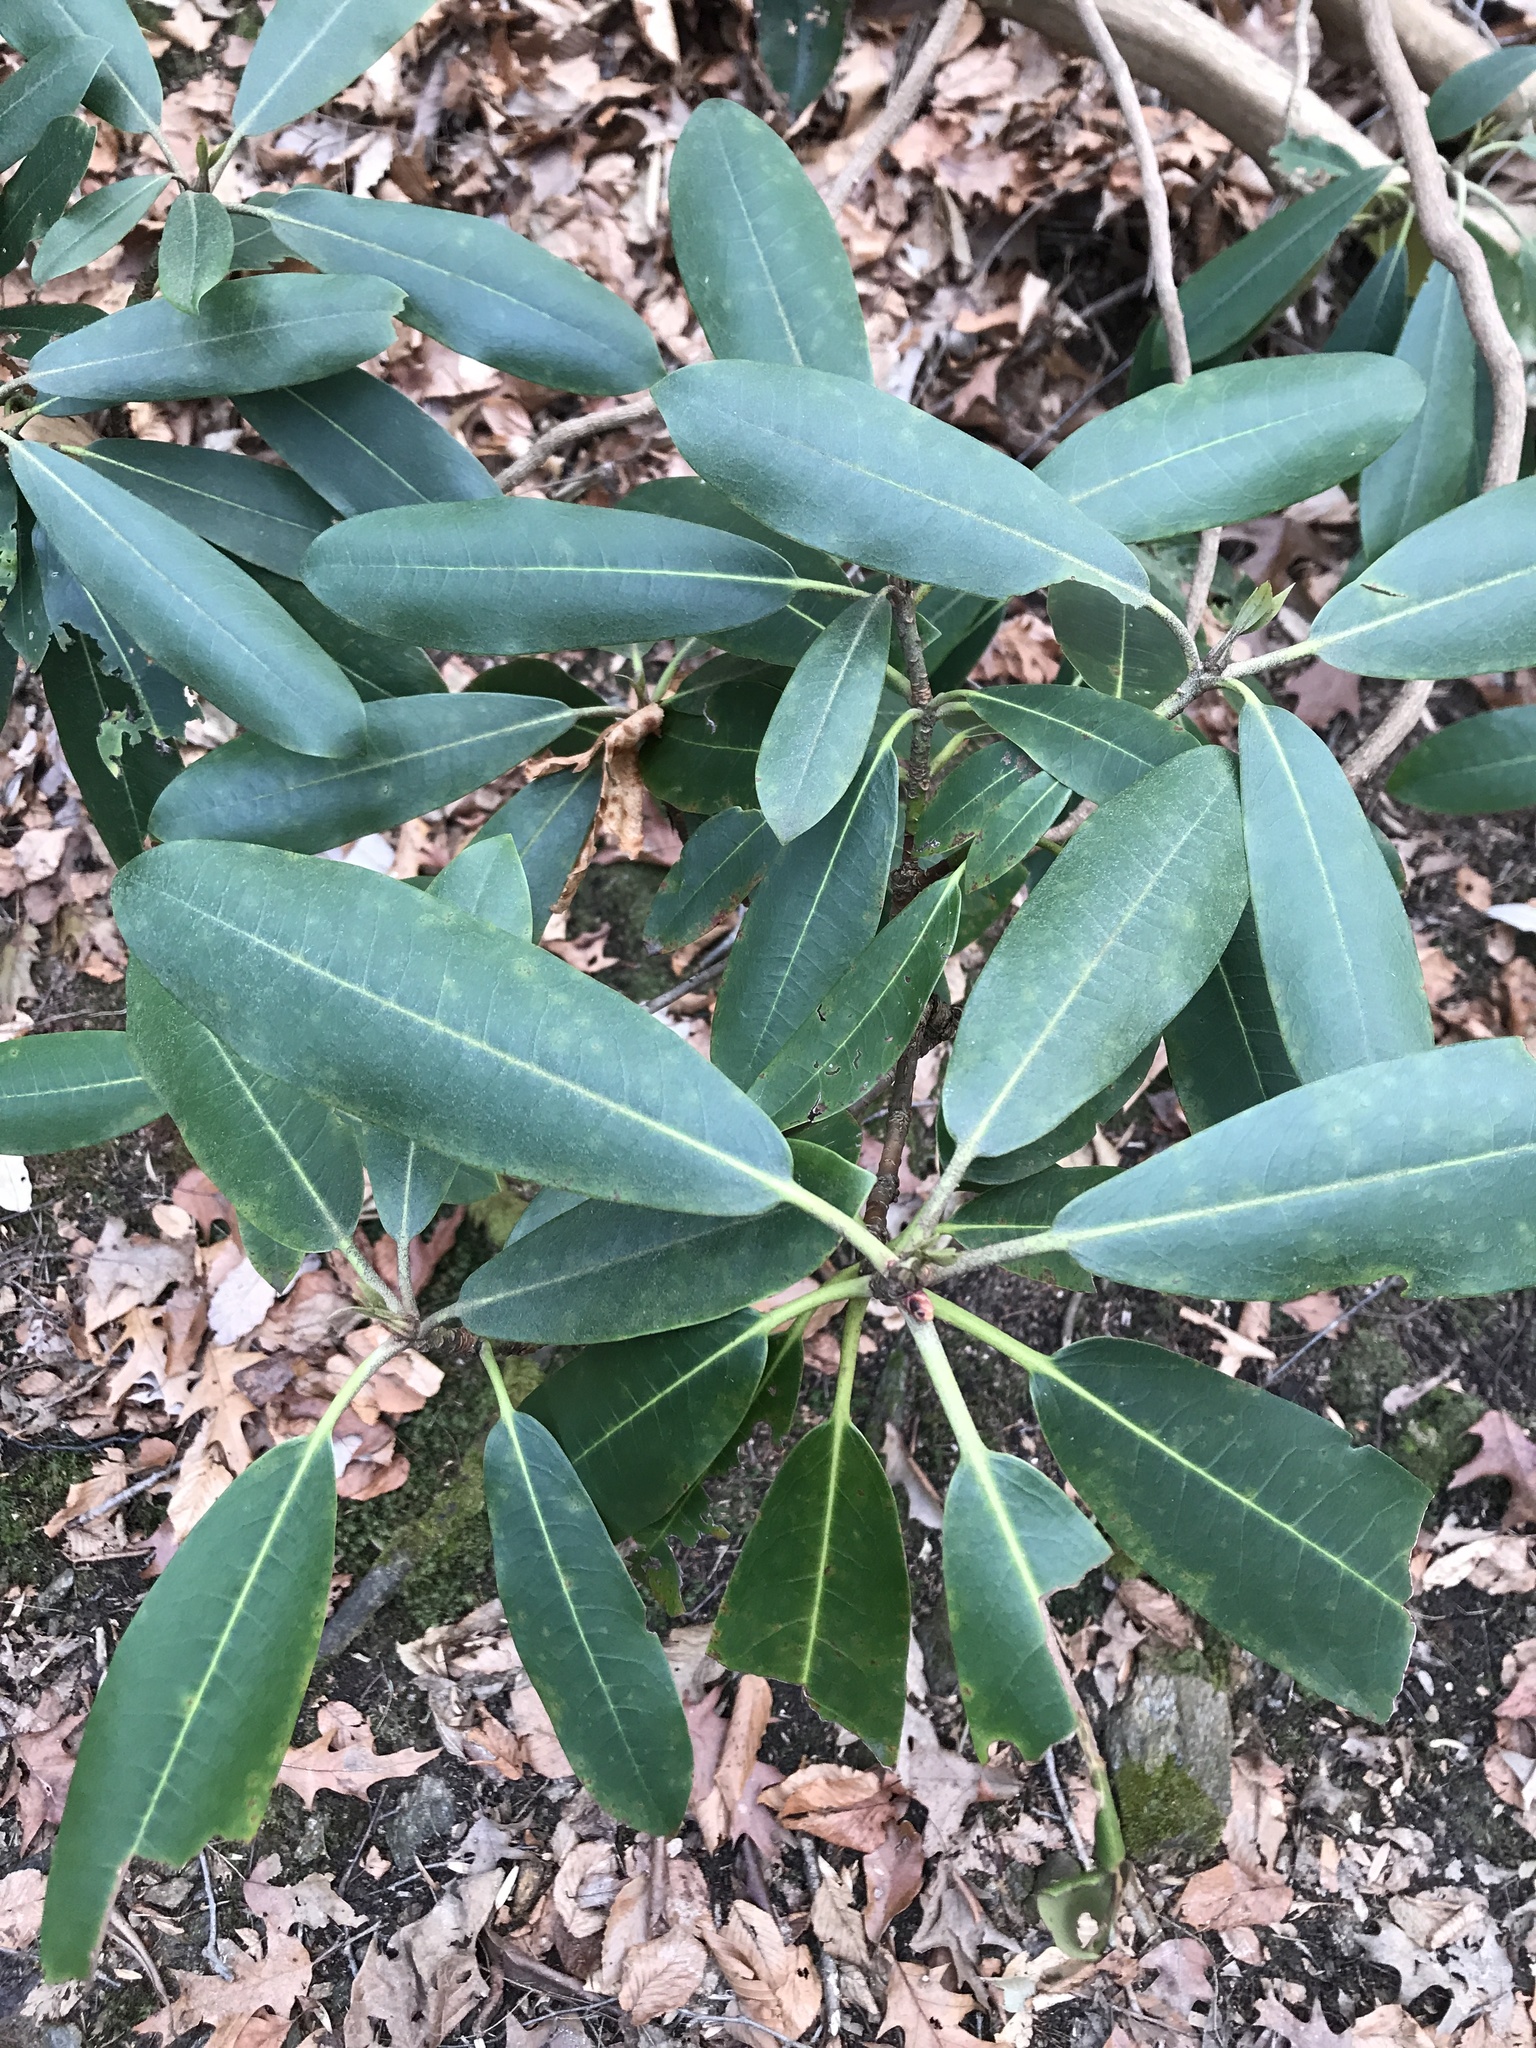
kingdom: Plantae
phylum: Tracheophyta
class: Magnoliopsida
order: Ericales
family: Ericaceae
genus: Rhododendron
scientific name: Rhododendron maximum
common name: Great rhododendron
